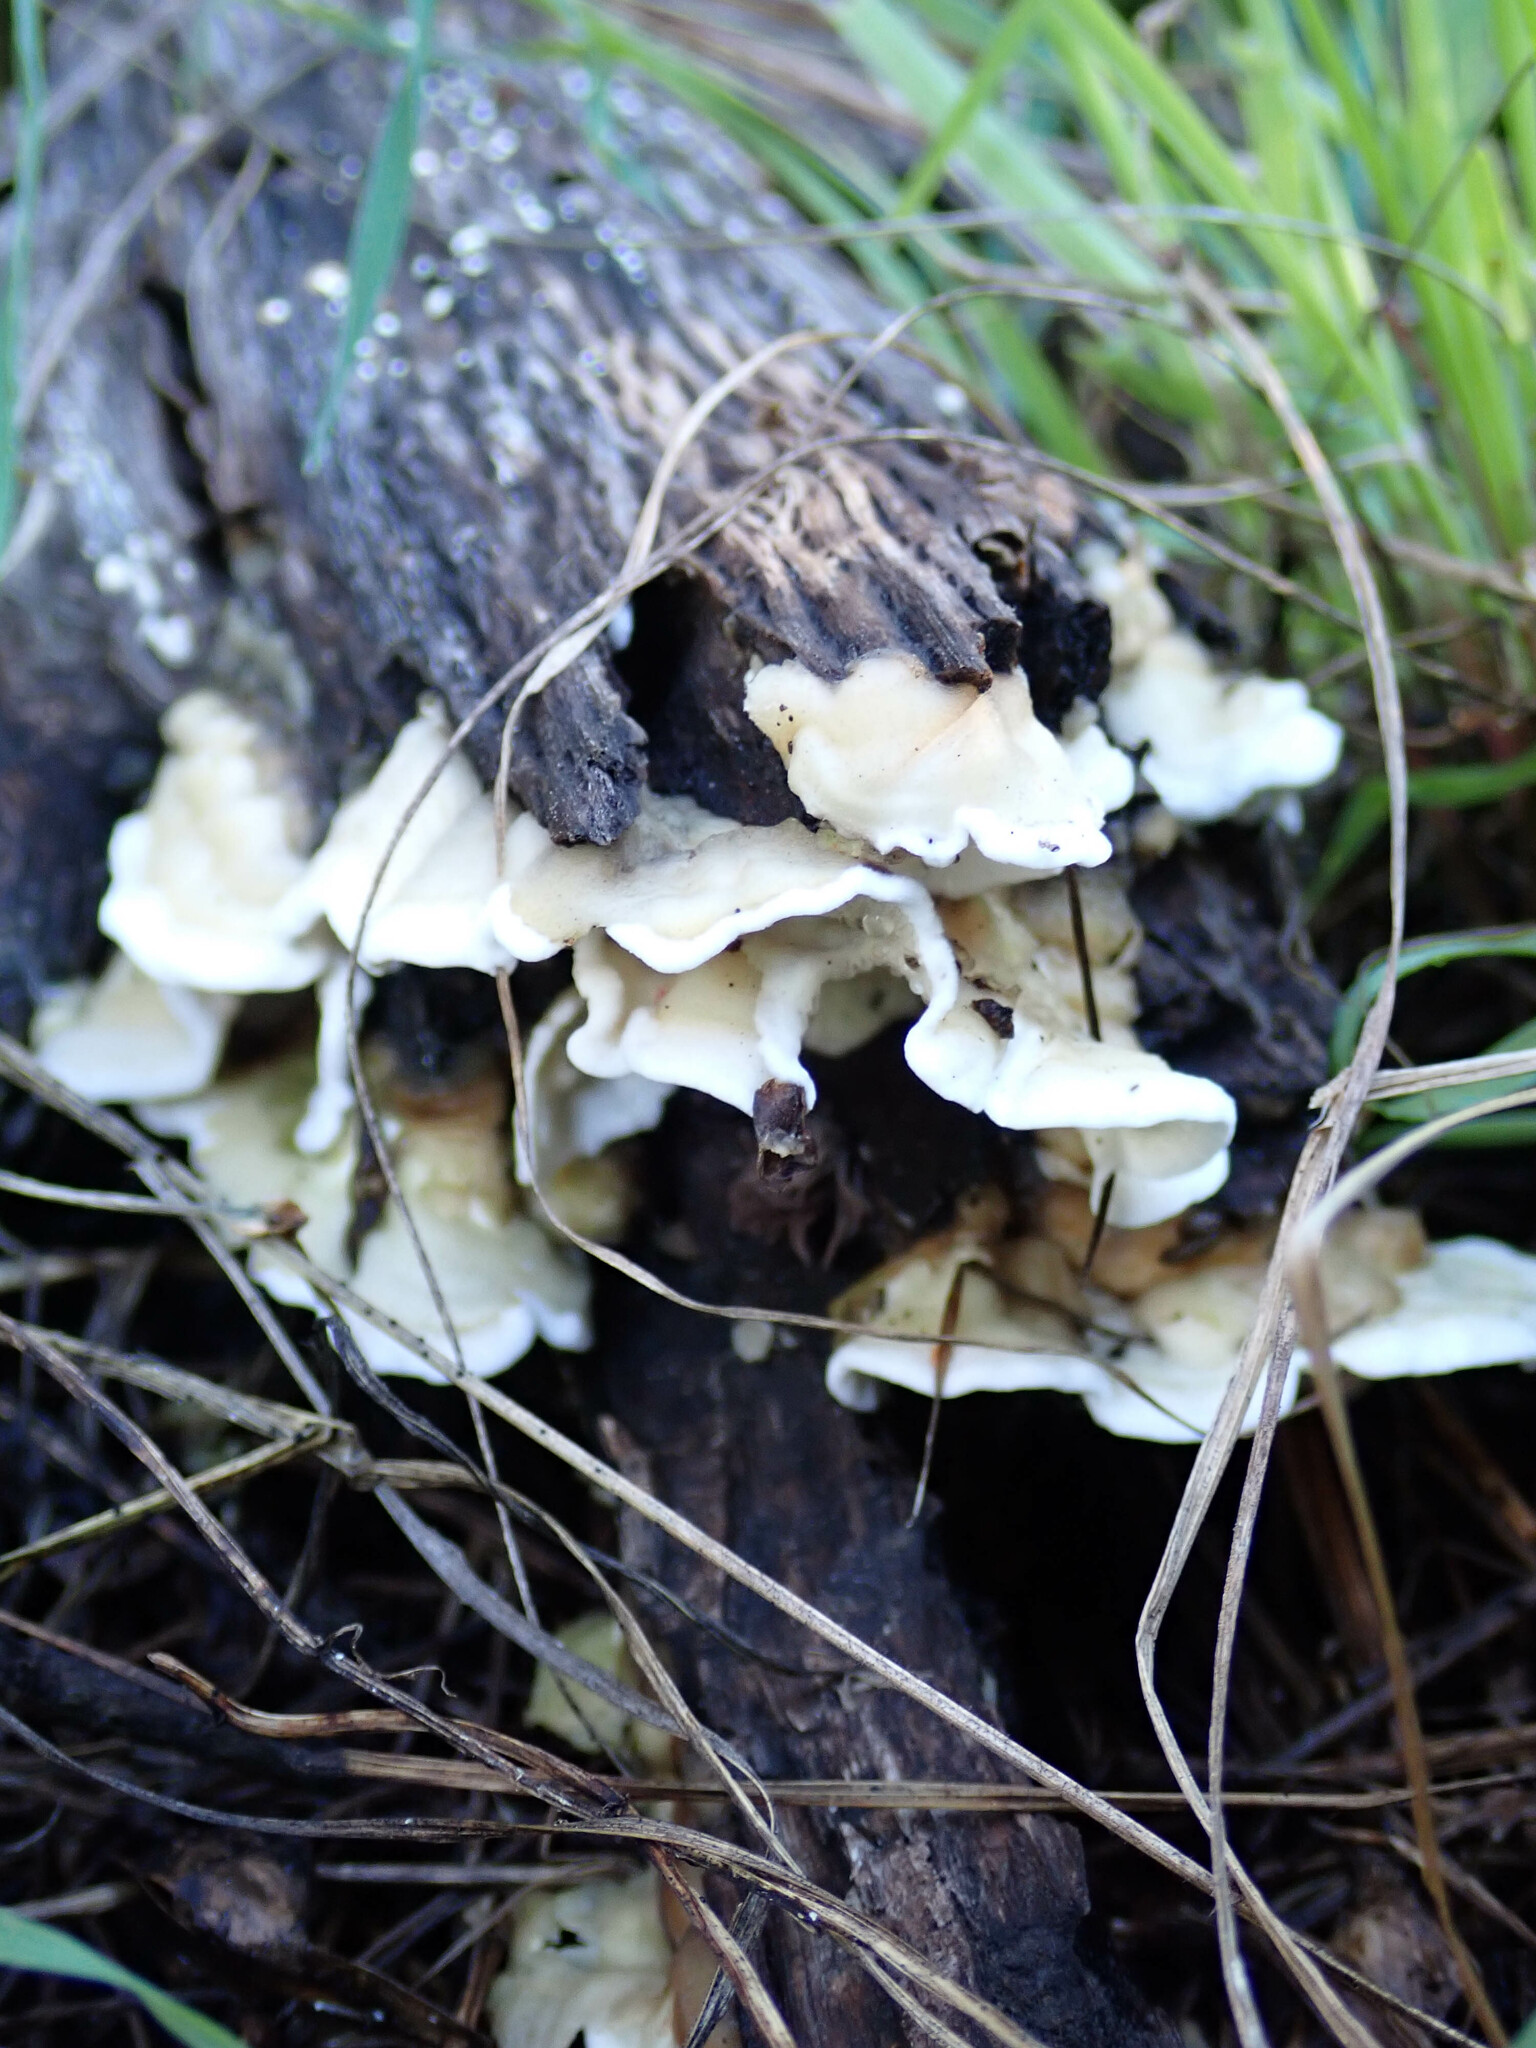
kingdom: Fungi
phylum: Basidiomycota
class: Agaricomycetes
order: Polyporales
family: Irpicaceae
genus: Byssomerulius
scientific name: Byssomerulius corium
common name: Netted crust
